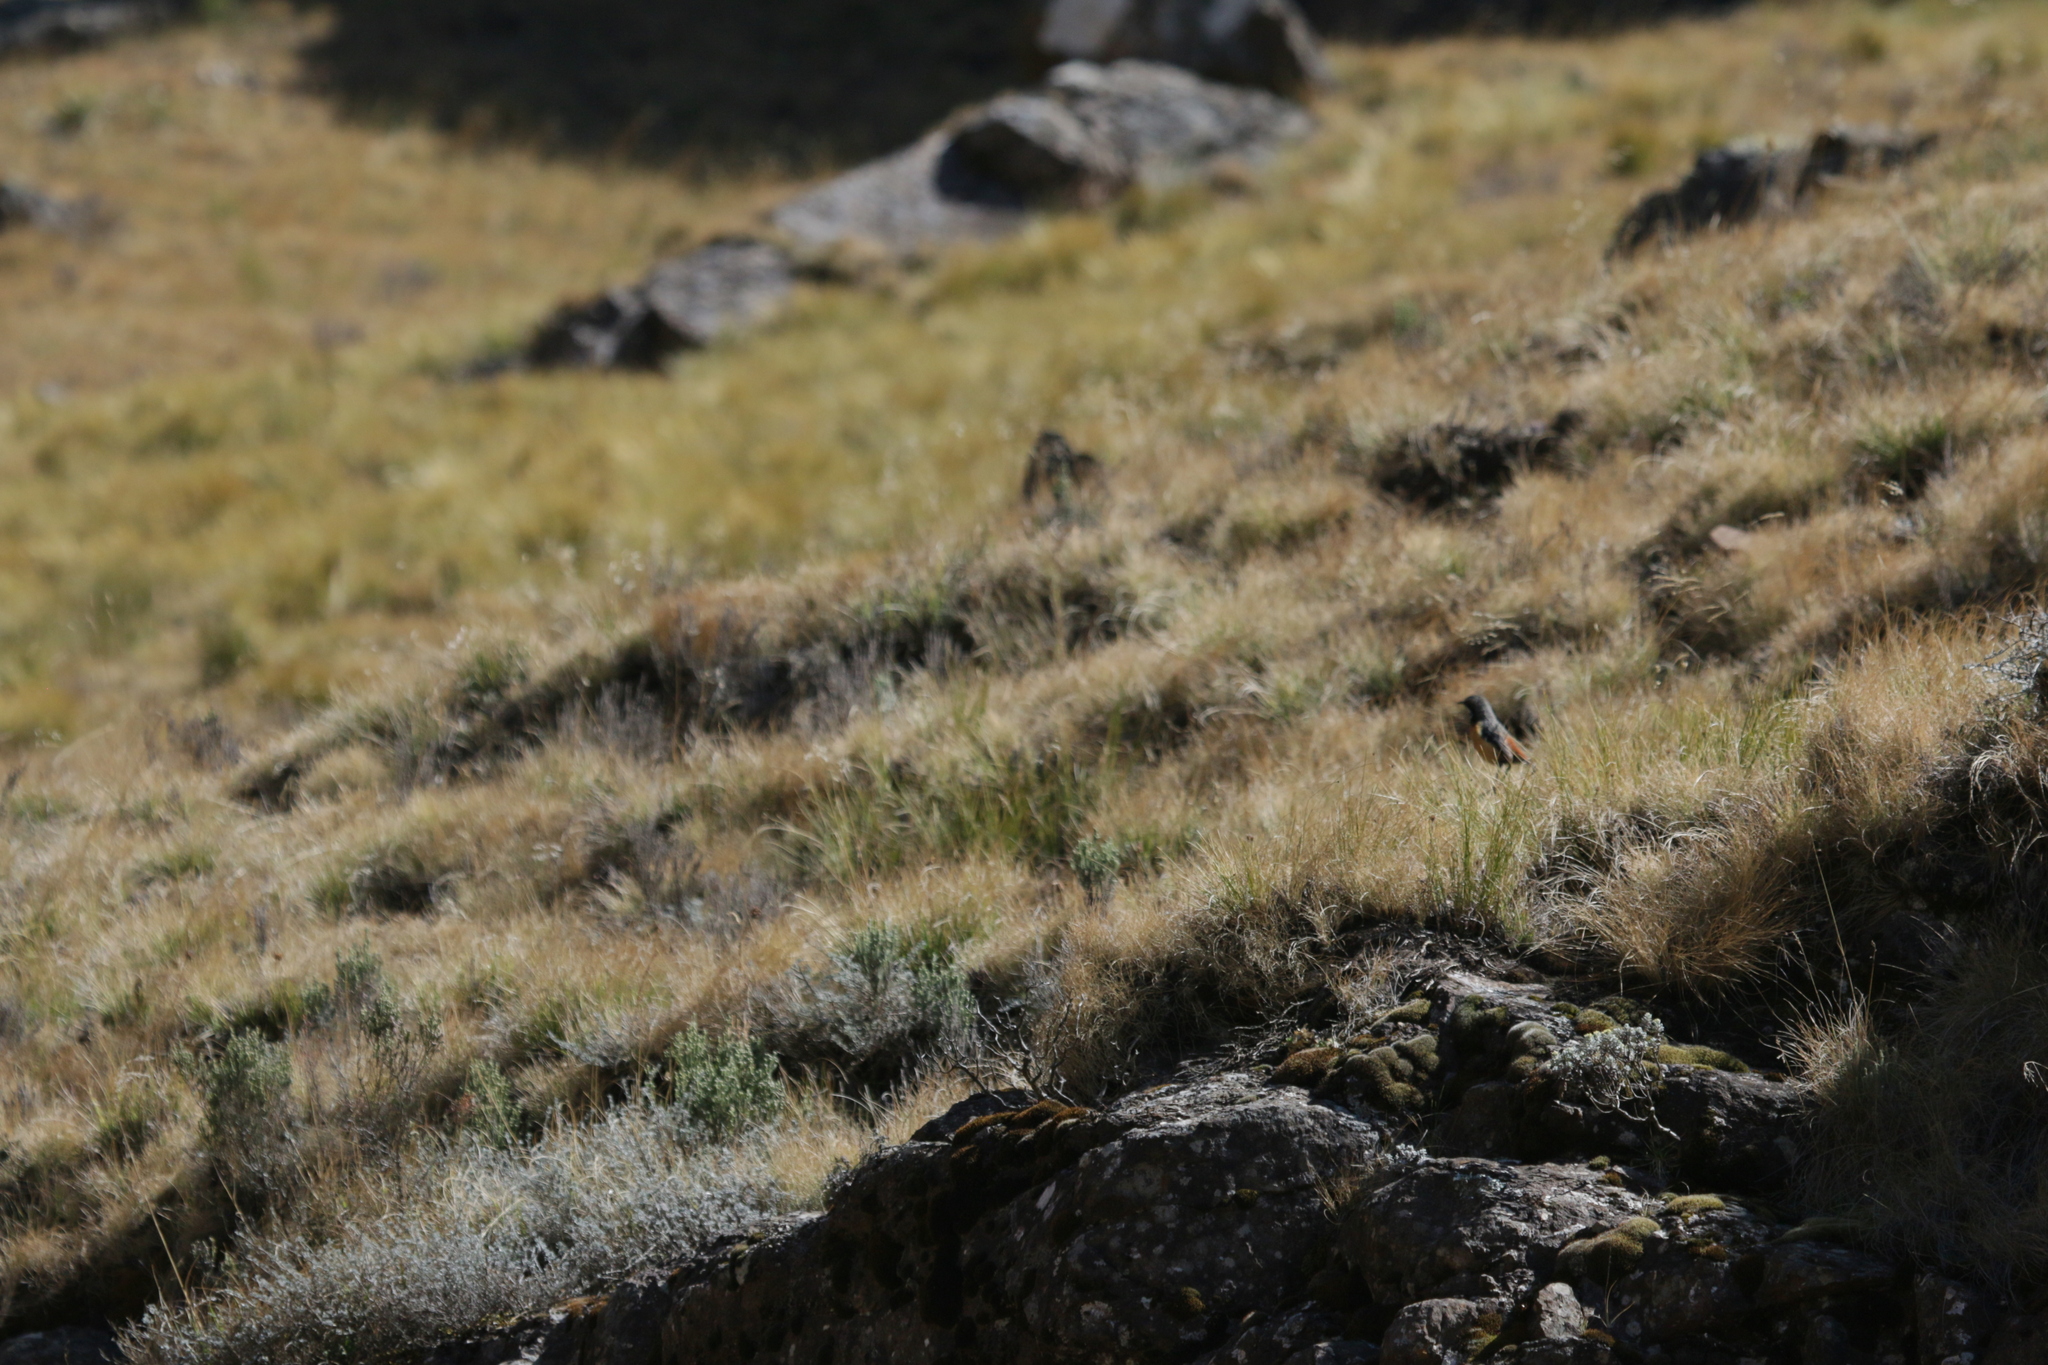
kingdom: Animalia
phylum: Chordata
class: Aves
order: Passeriformes
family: Chaetopidae
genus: Chaetops
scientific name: Chaetops aurantius
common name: Drakensberg rockjumper
